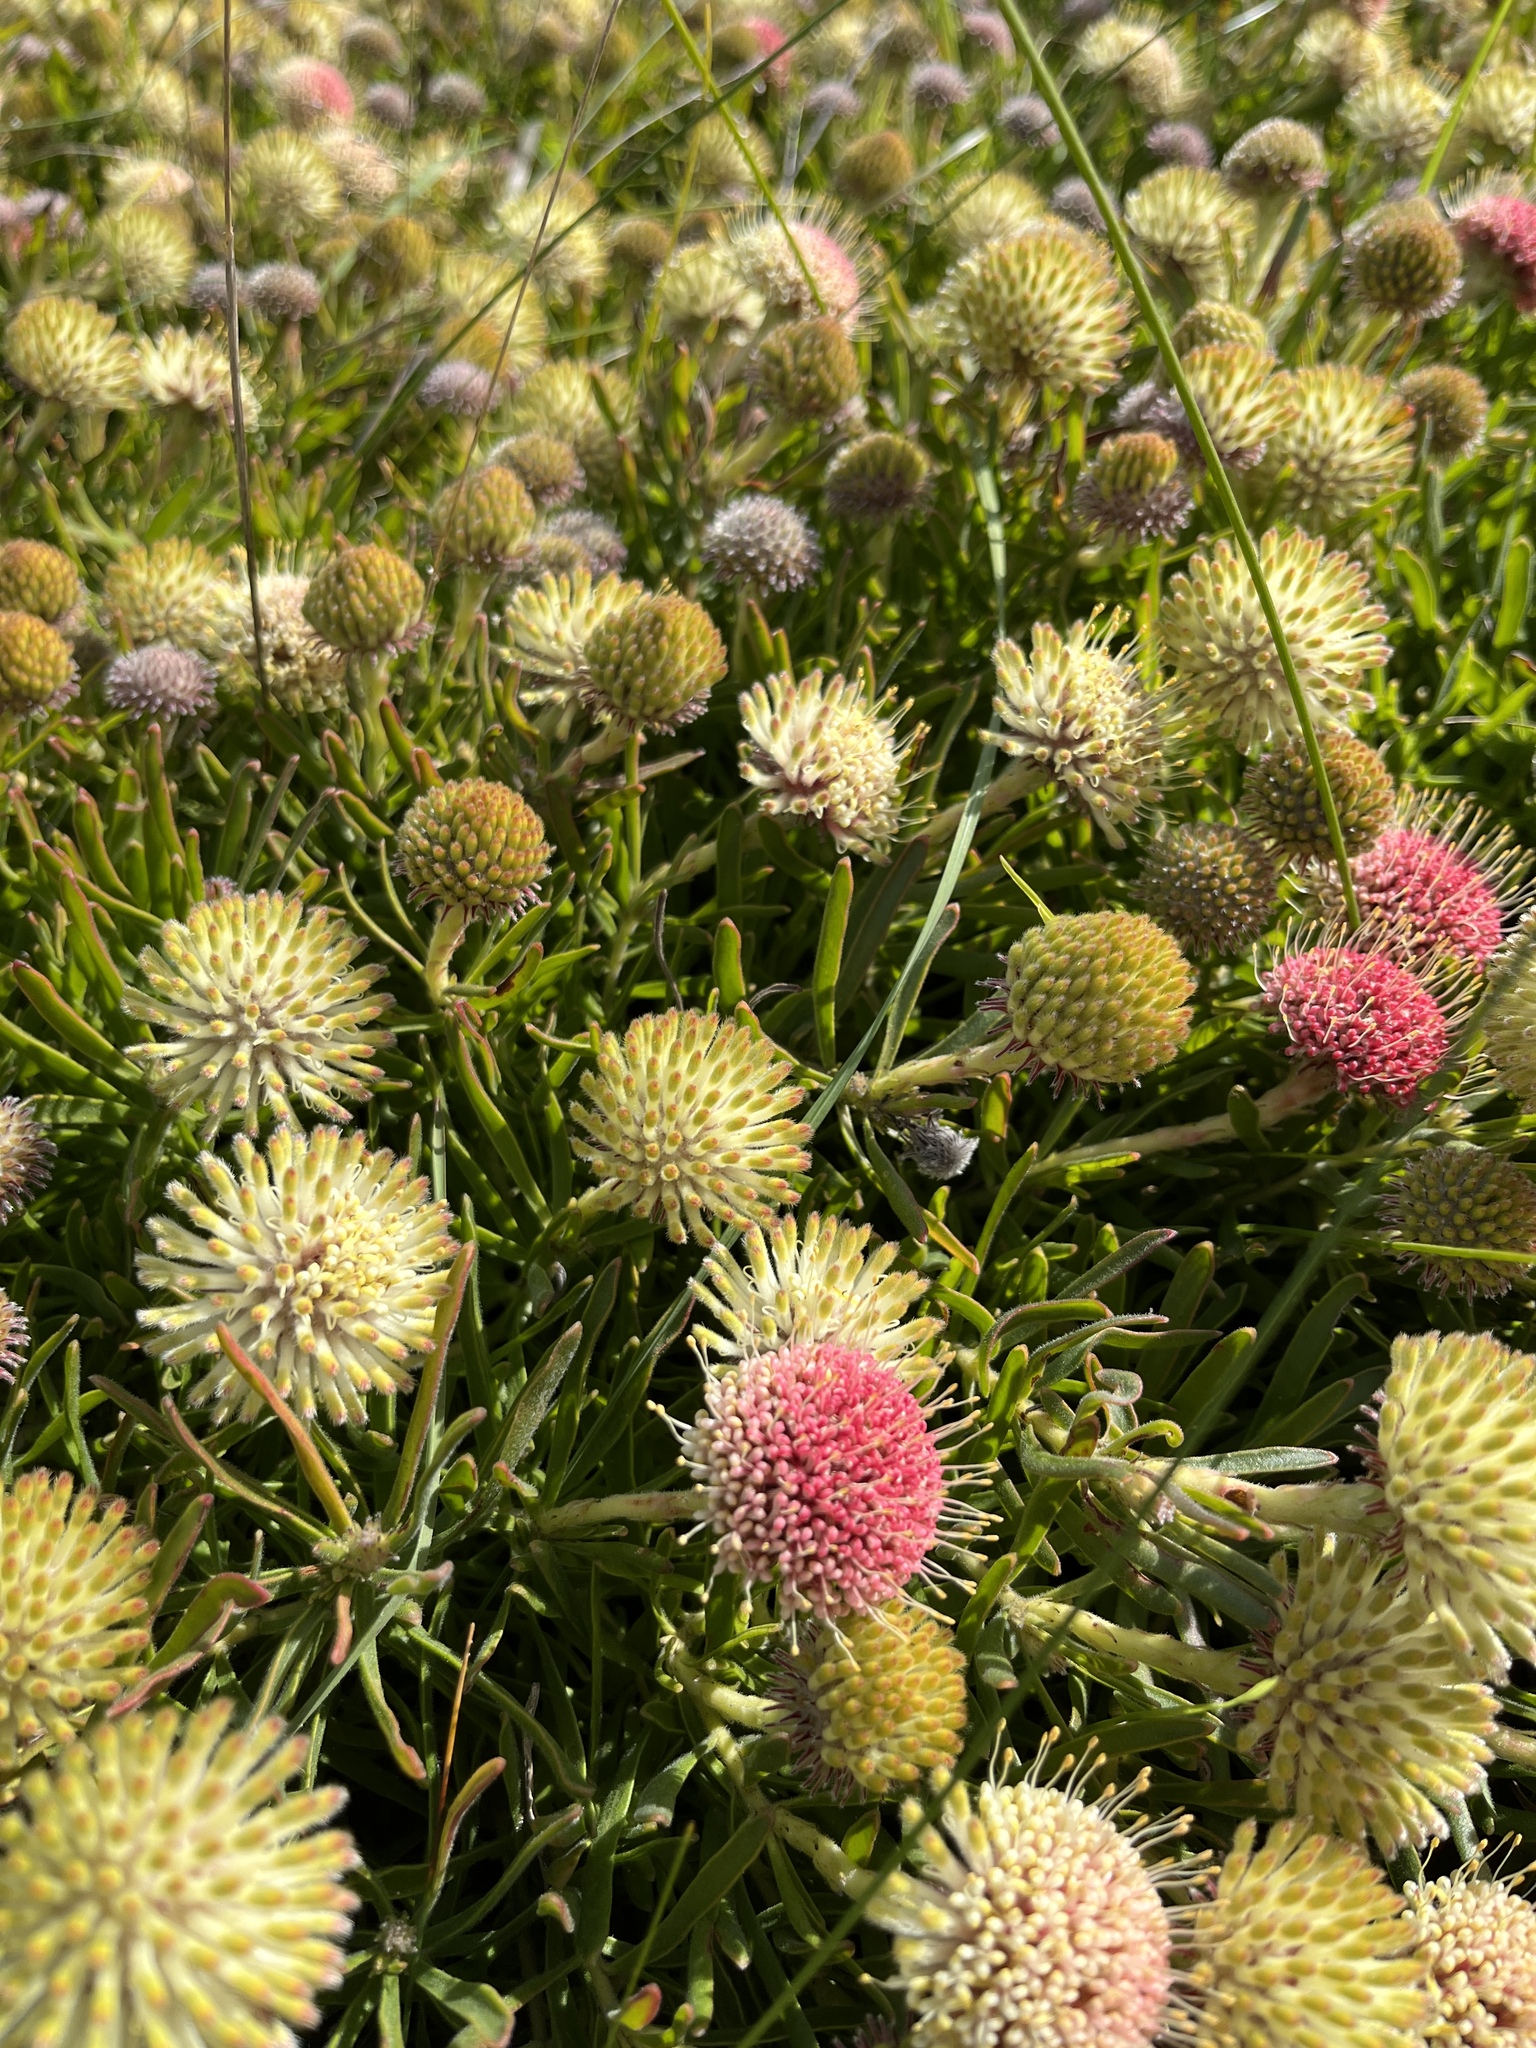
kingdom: Plantae
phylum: Tracheophyta
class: Magnoliopsida
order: Proteales
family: Proteaceae
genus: Leucospermum
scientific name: Leucospermum pedunculatum
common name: White-trailing pincushion
